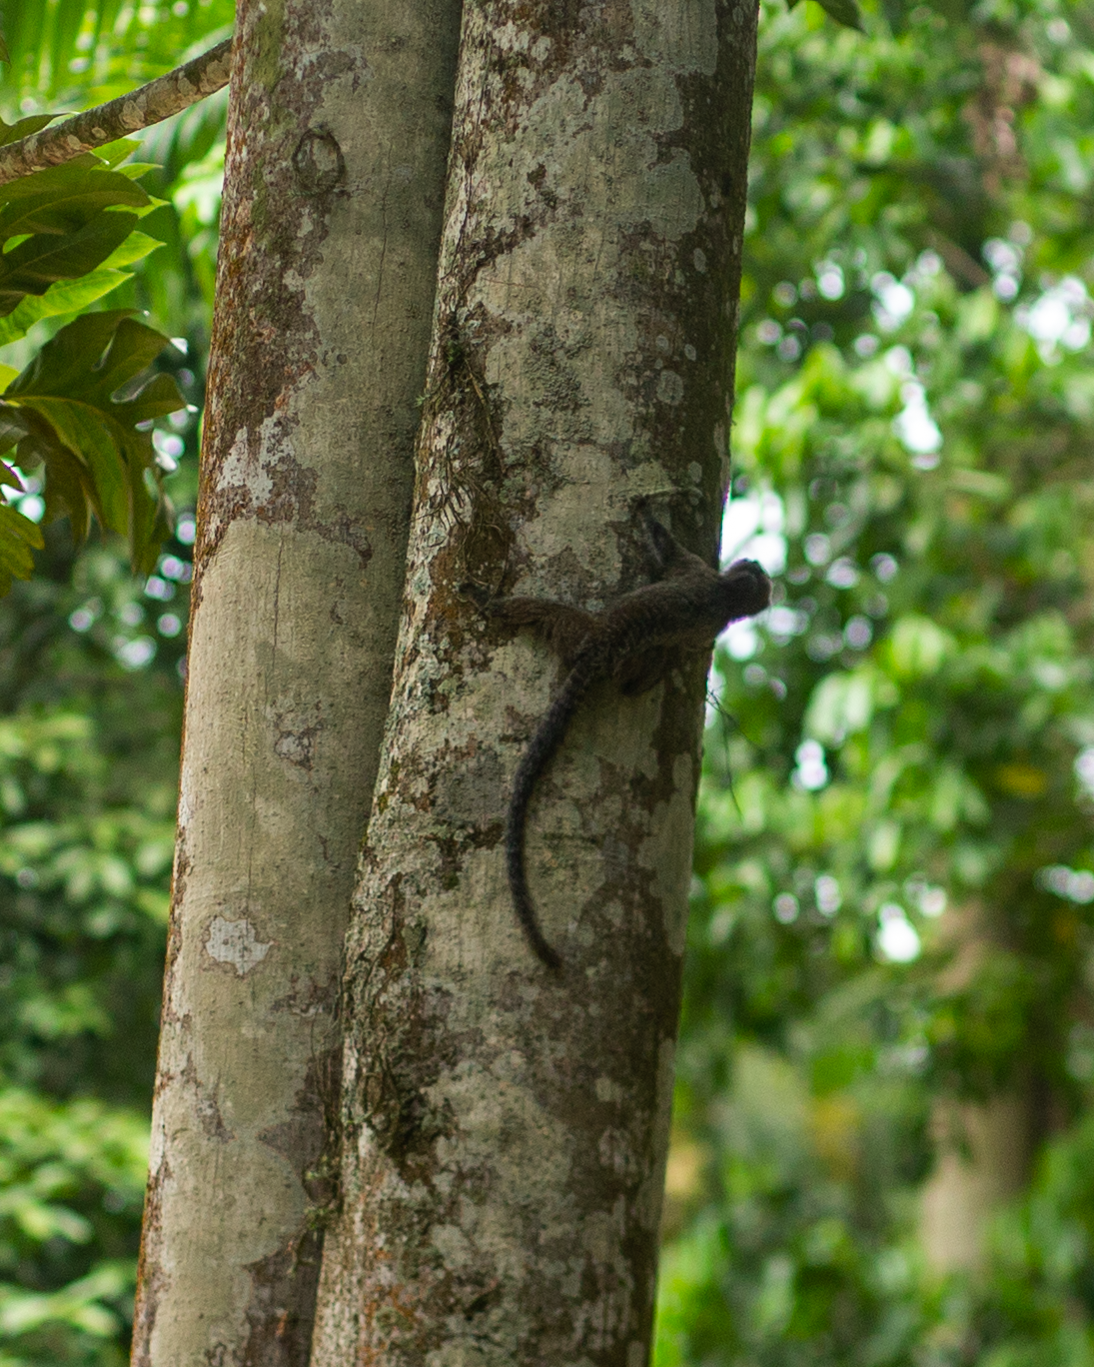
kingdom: Animalia
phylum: Chordata
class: Mammalia
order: Primates
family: Callitrichidae
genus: Callithrix
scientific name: Callithrix penicillata
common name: Black-tufted marmoset
